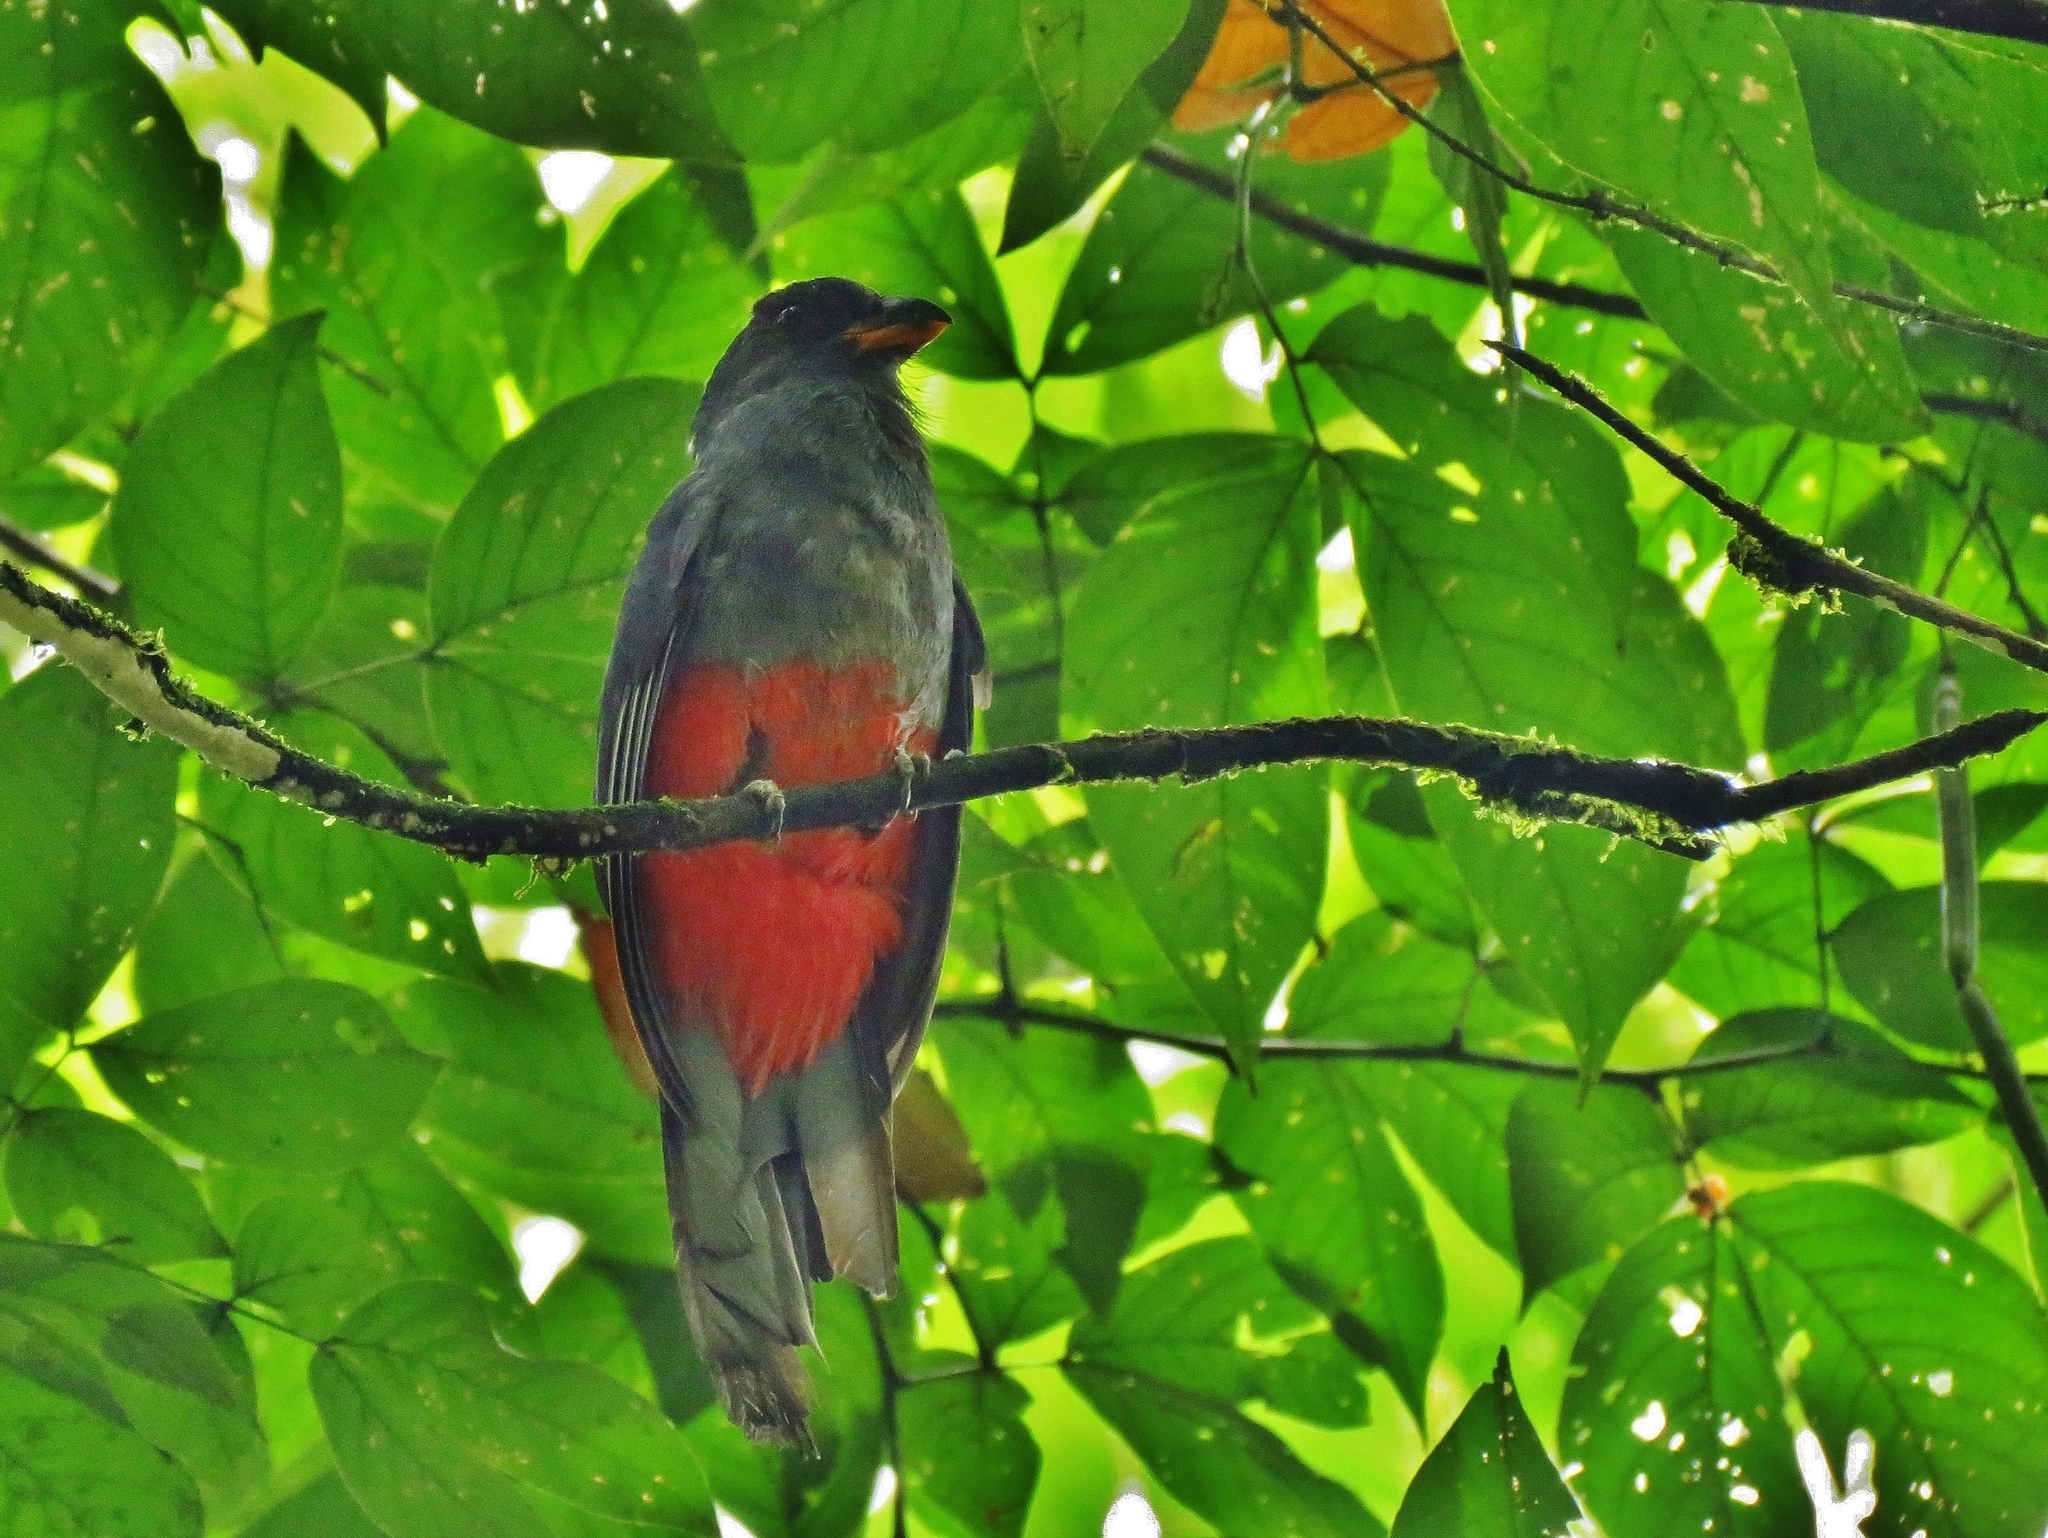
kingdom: Animalia
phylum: Chordata
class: Aves
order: Trogoniformes
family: Trogonidae
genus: Trogon
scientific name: Trogon massena
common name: Slaty-tailed trogon
